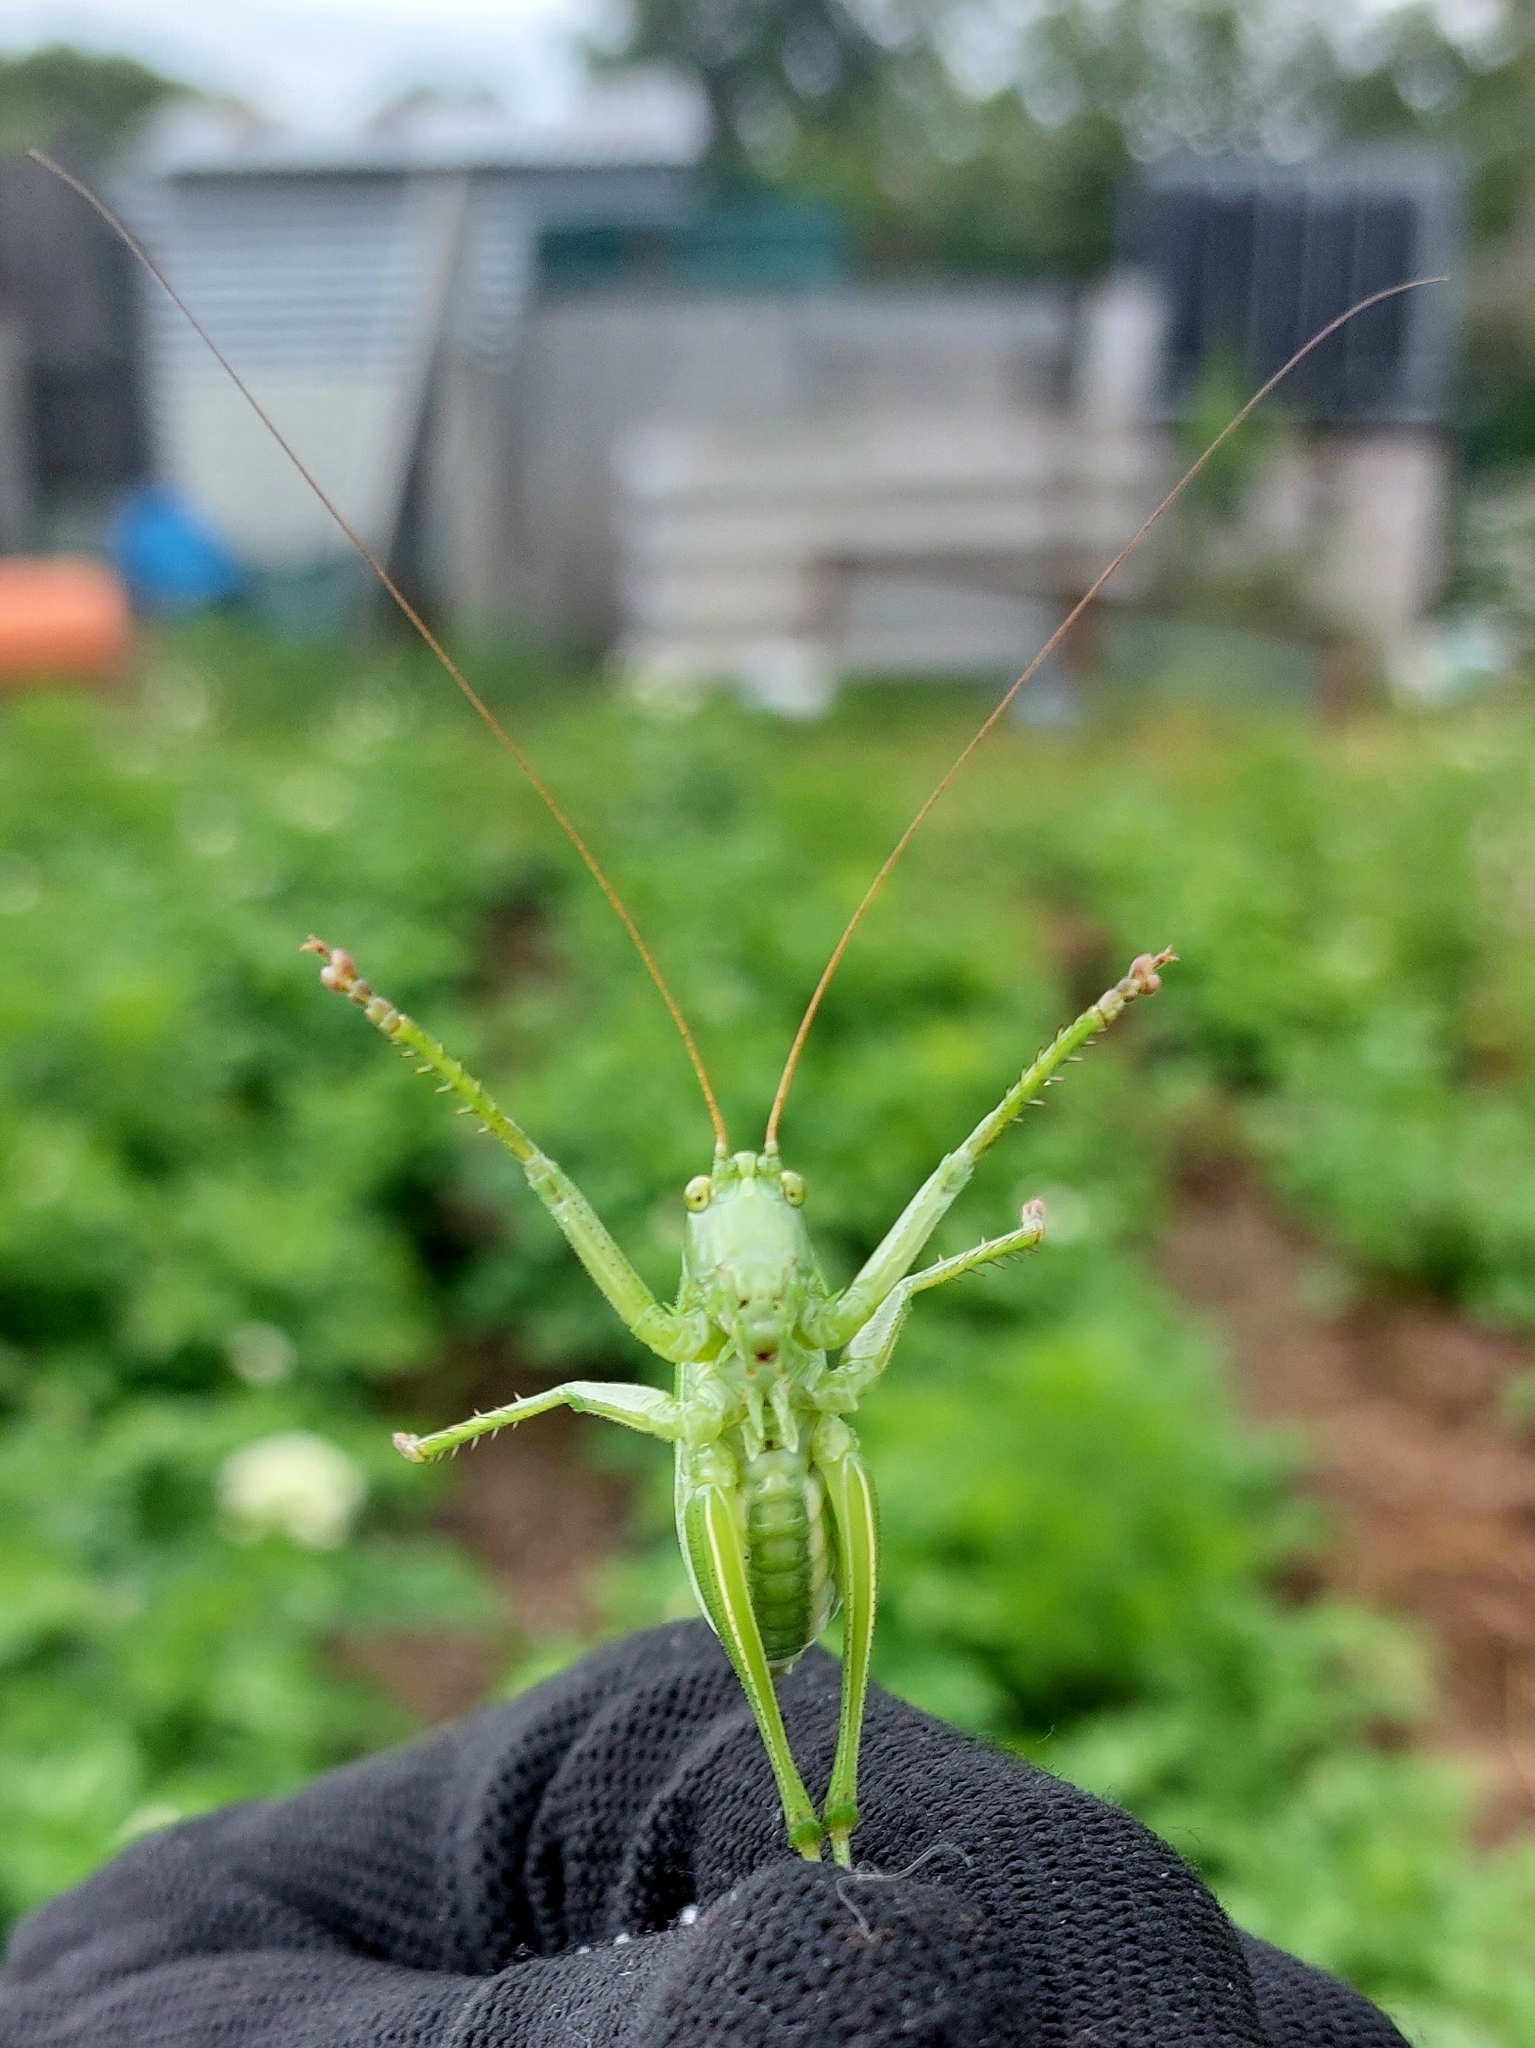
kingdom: Animalia
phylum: Arthropoda
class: Insecta
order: Orthoptera
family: Tettigoniidae
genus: Tettigonia
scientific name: Tettigonia cantans
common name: Upland green bush-cricket
